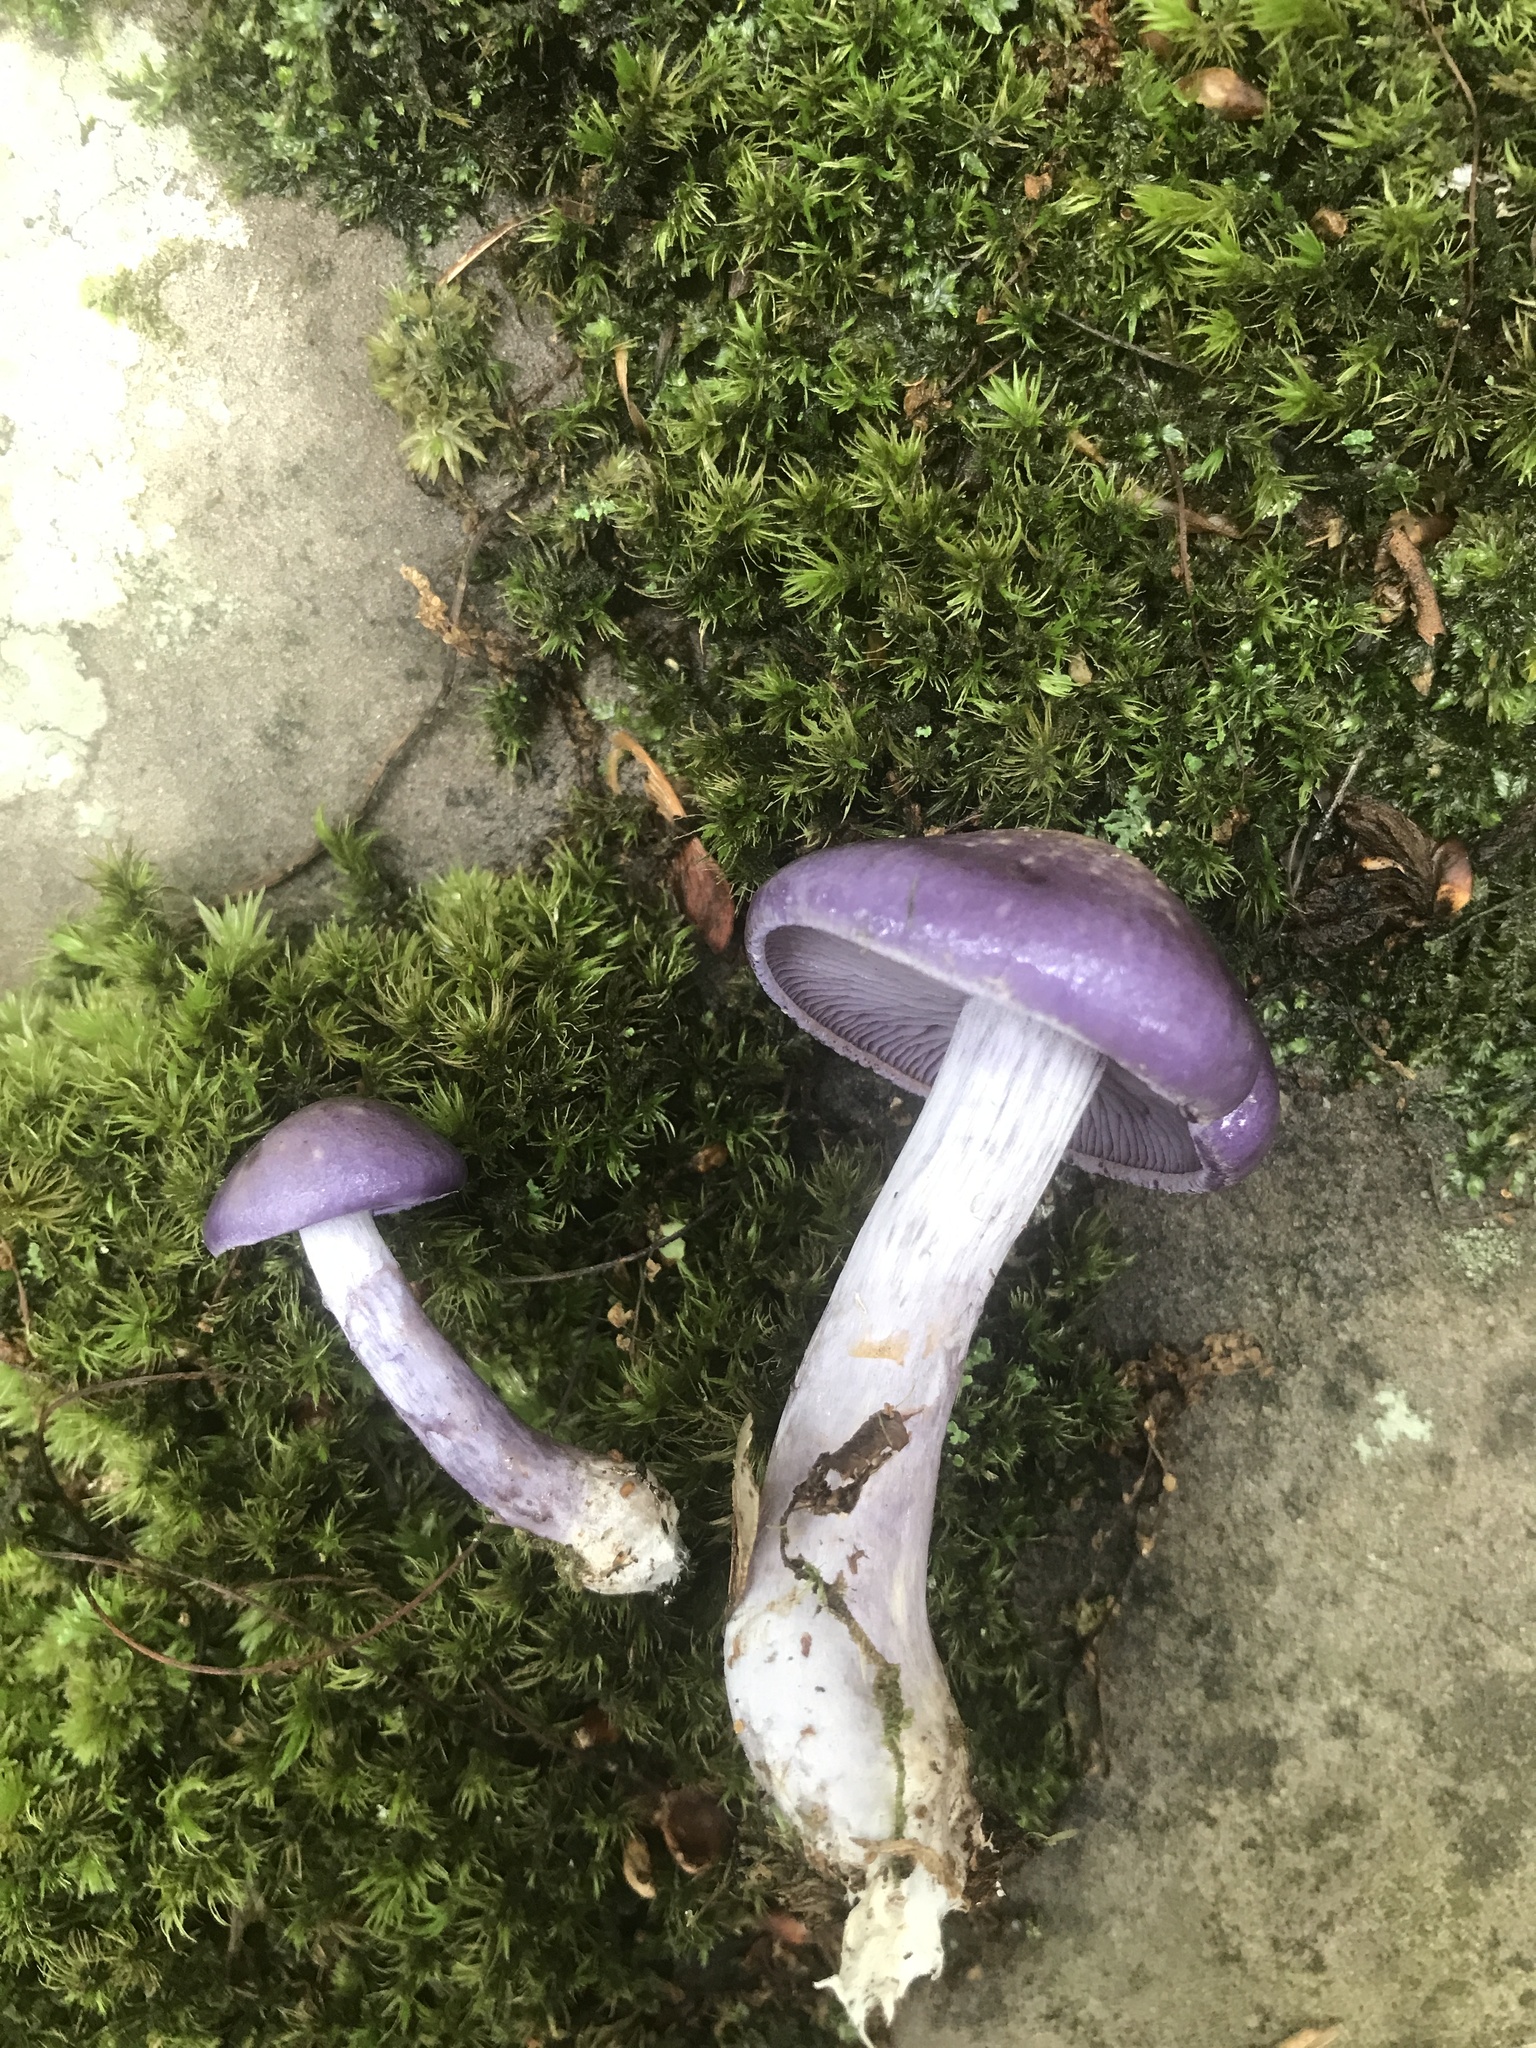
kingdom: Fungi
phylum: Basidiomycota
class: Agaricomycetes
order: Agaricales
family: Cortinariaceae
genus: Cortinarius
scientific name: Cortinarius iodes
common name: Viscid violet cort
